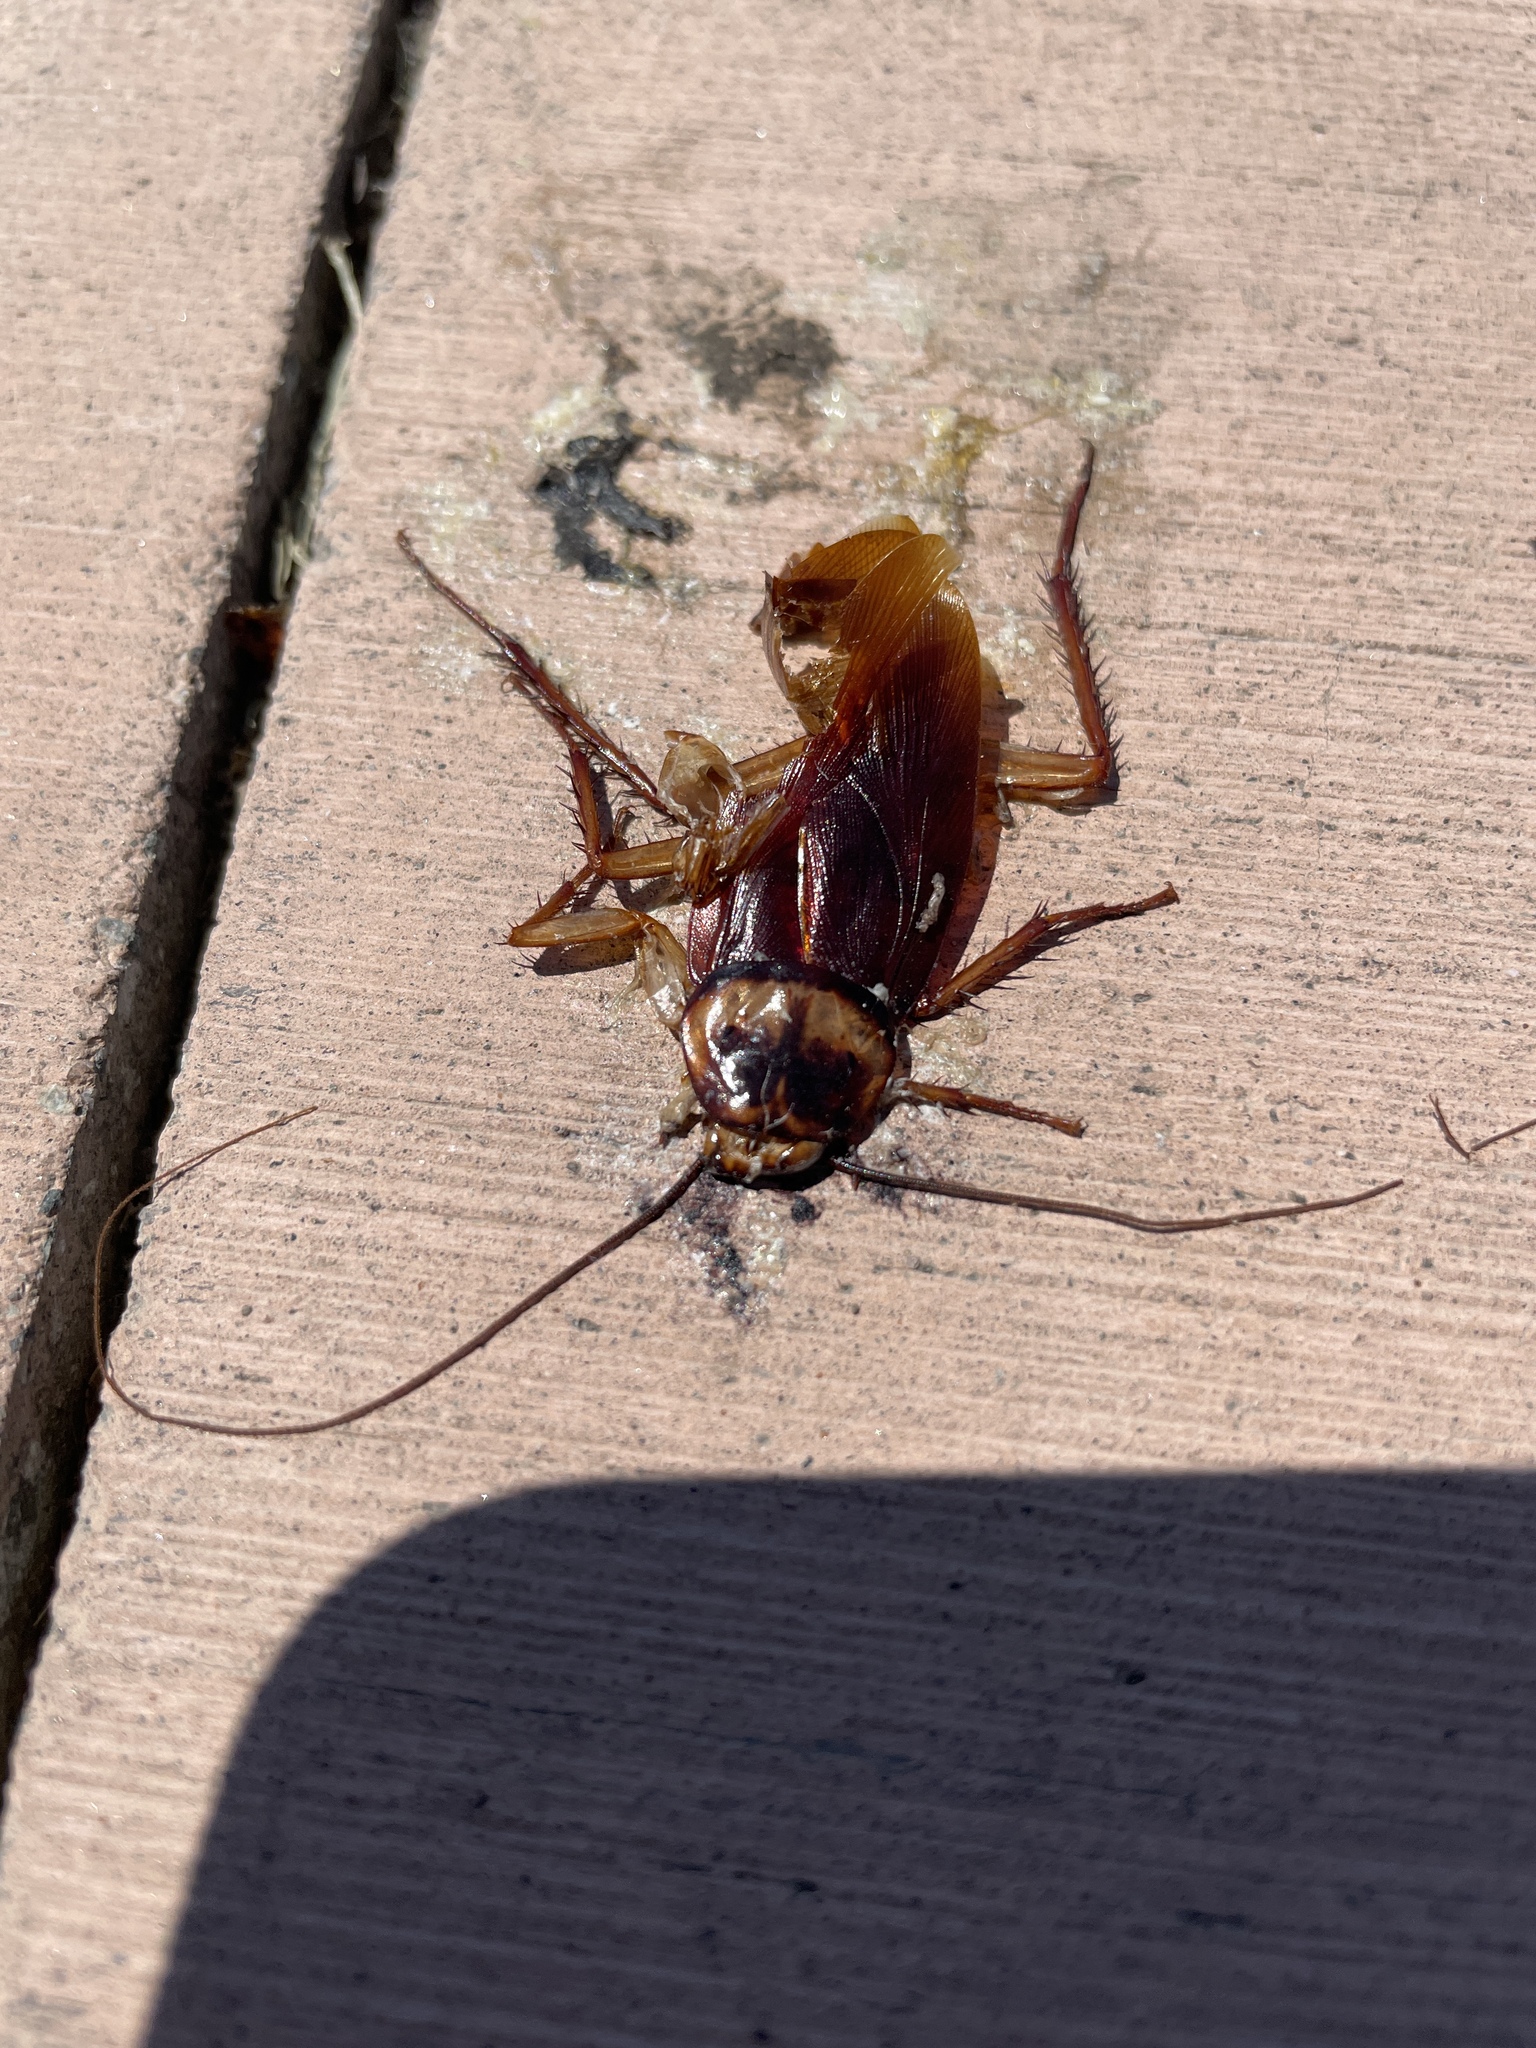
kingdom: Animalia
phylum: Arthropoda
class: Insecta
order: Blattodea
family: Blattidae
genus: Periplaneta
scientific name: Periplaneta americana
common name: American cockroach
